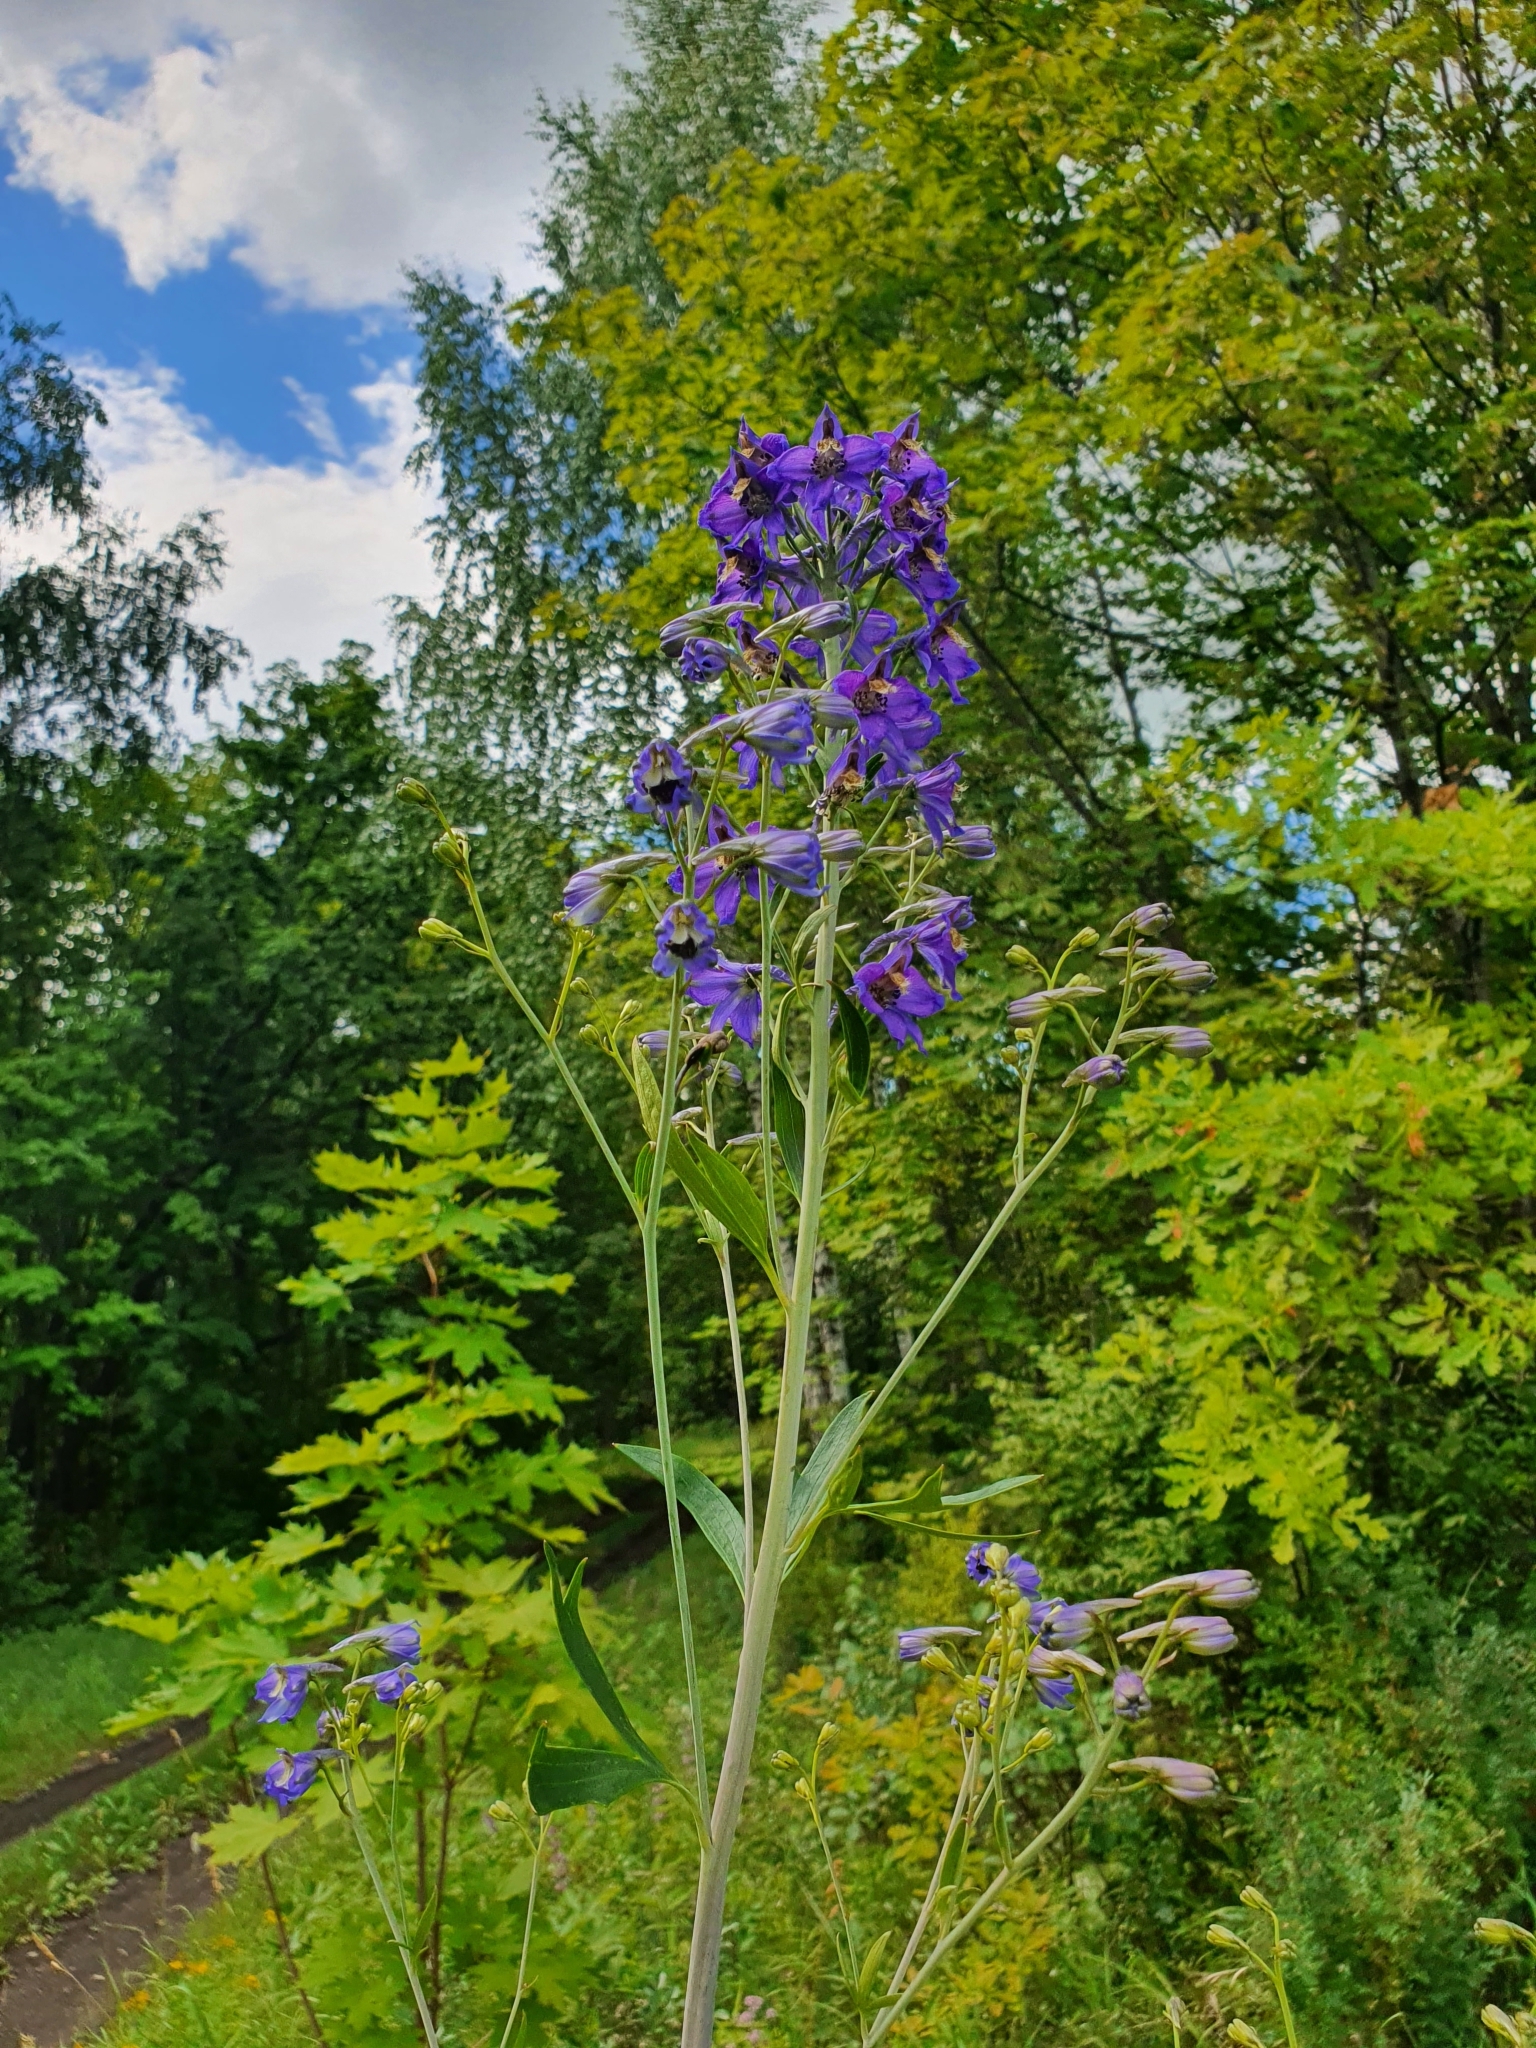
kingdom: Plantae
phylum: Tracheophyta
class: Magnoliopsida
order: Ranunculales
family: Ranunculaceae
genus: Delphinium
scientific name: Delphinium cuneatum
